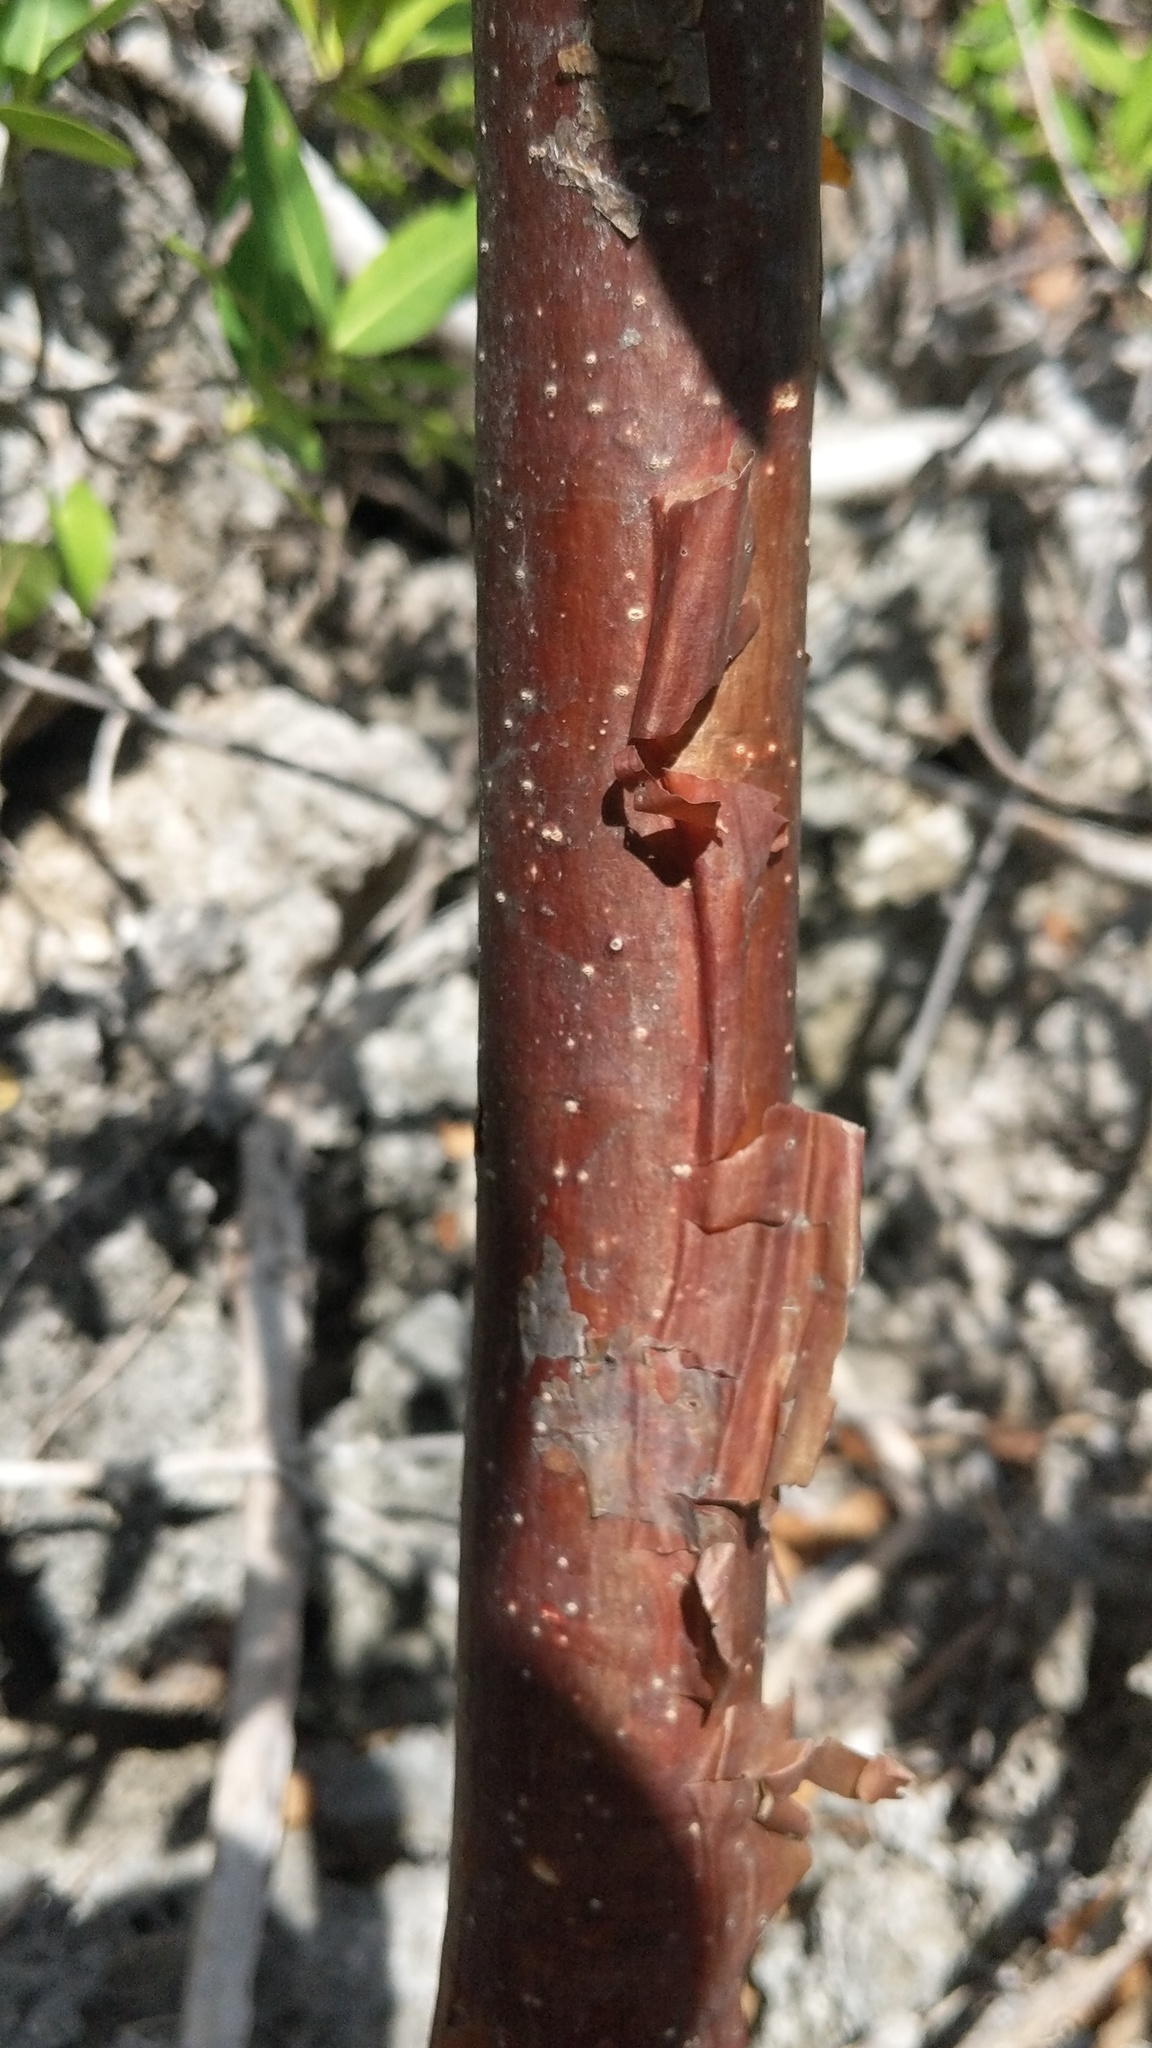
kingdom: Plantae
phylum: Tracheophyta
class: Magnoliopsida
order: Sapindales
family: Burseraceae
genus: Bursera
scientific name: Bursera simaruba
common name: Turpentine tree
